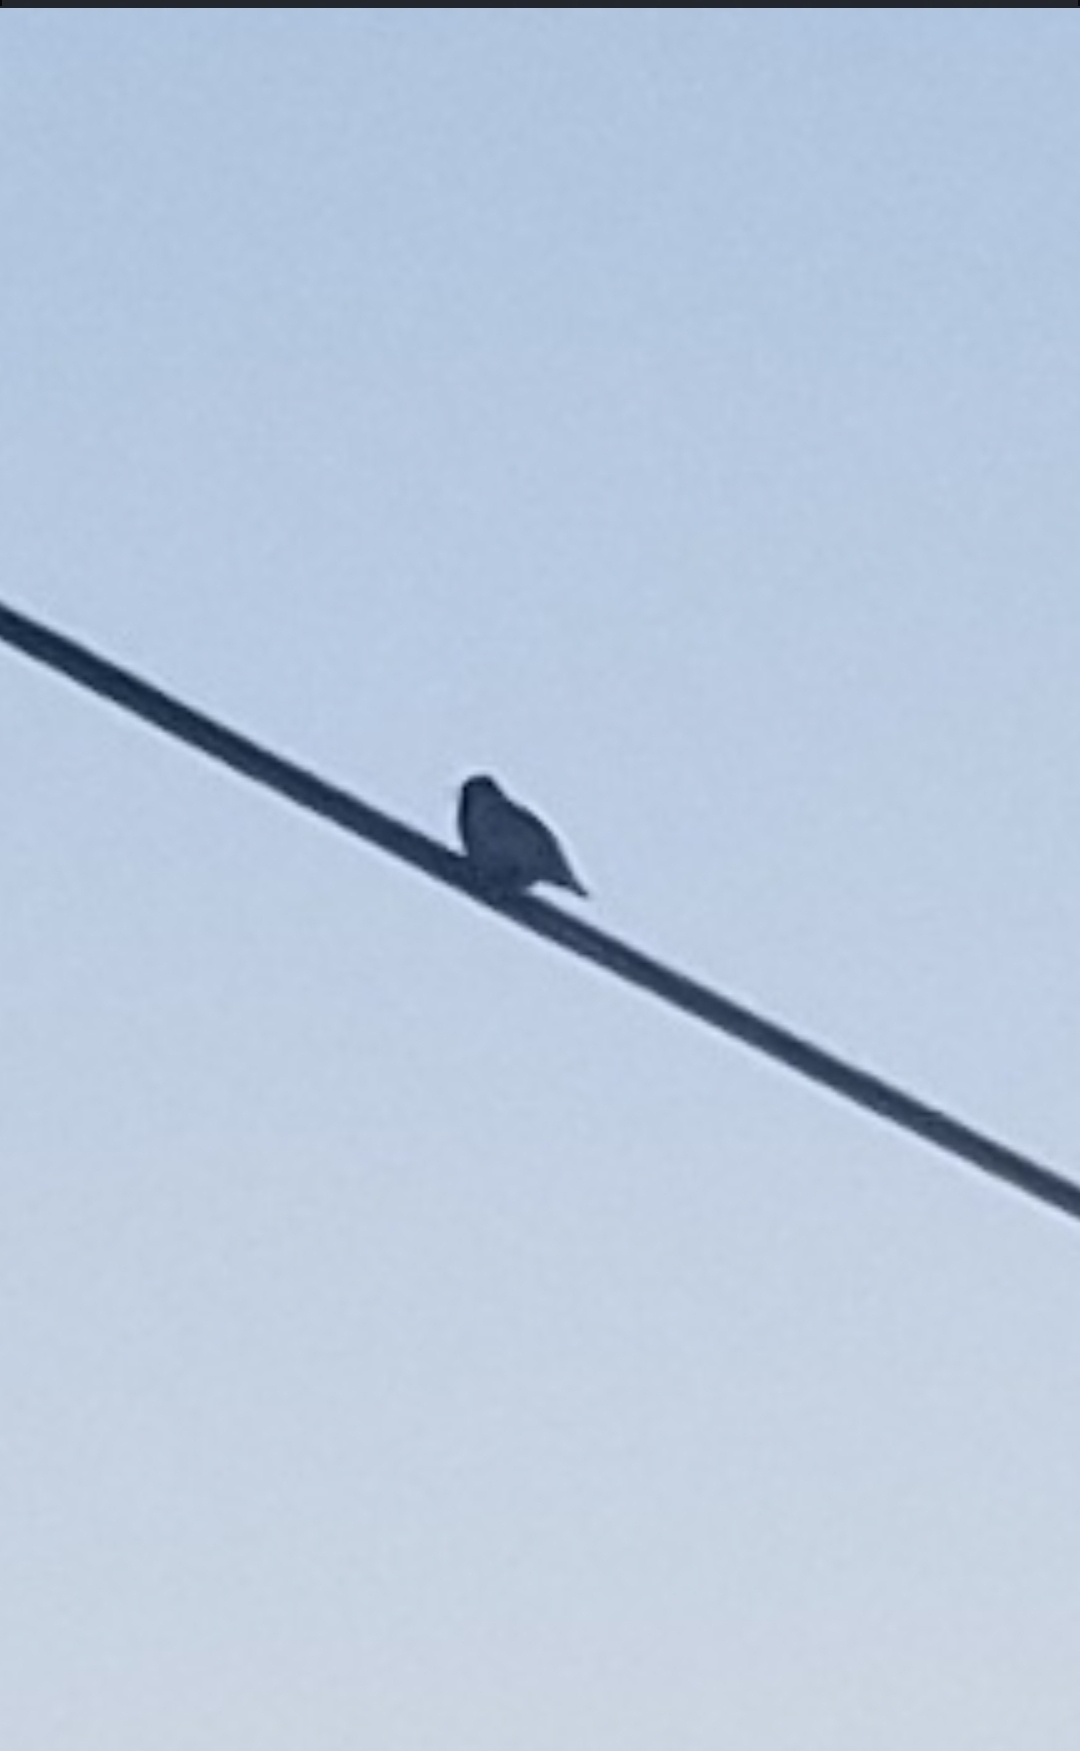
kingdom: Animalia
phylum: Chordata
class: Aves
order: Passeriformes
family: Sturnidae
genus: Sturnus
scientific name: Sturnus vulgaris
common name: Common starling
